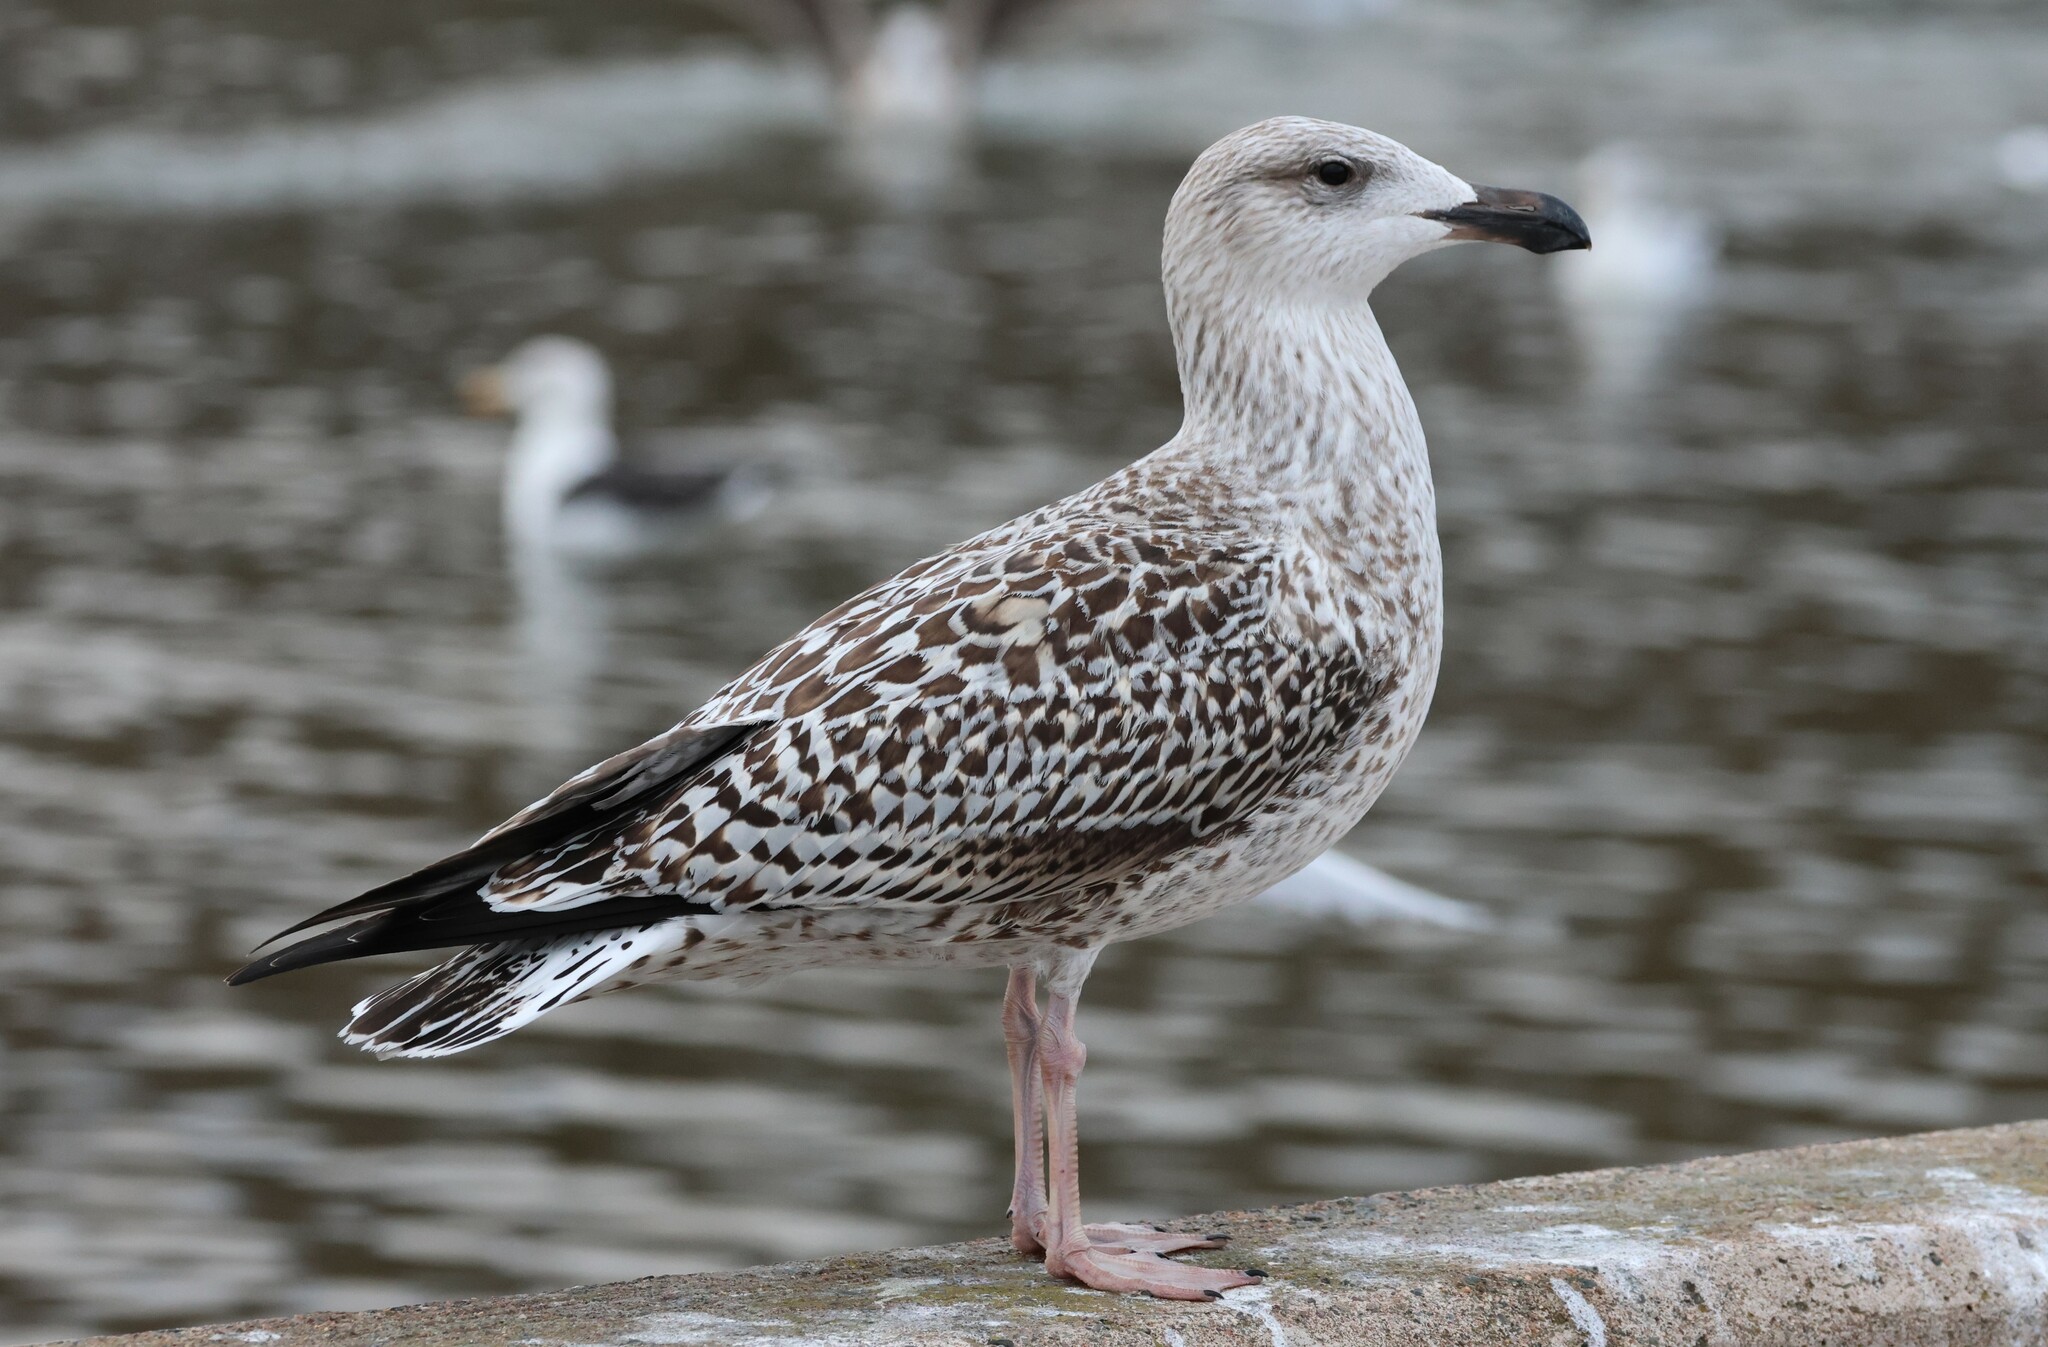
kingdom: Animalia
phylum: Chordata
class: Aves
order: Charadriiformes
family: Laridae
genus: Larus
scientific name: Larus marinus
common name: Great black-backed gull
